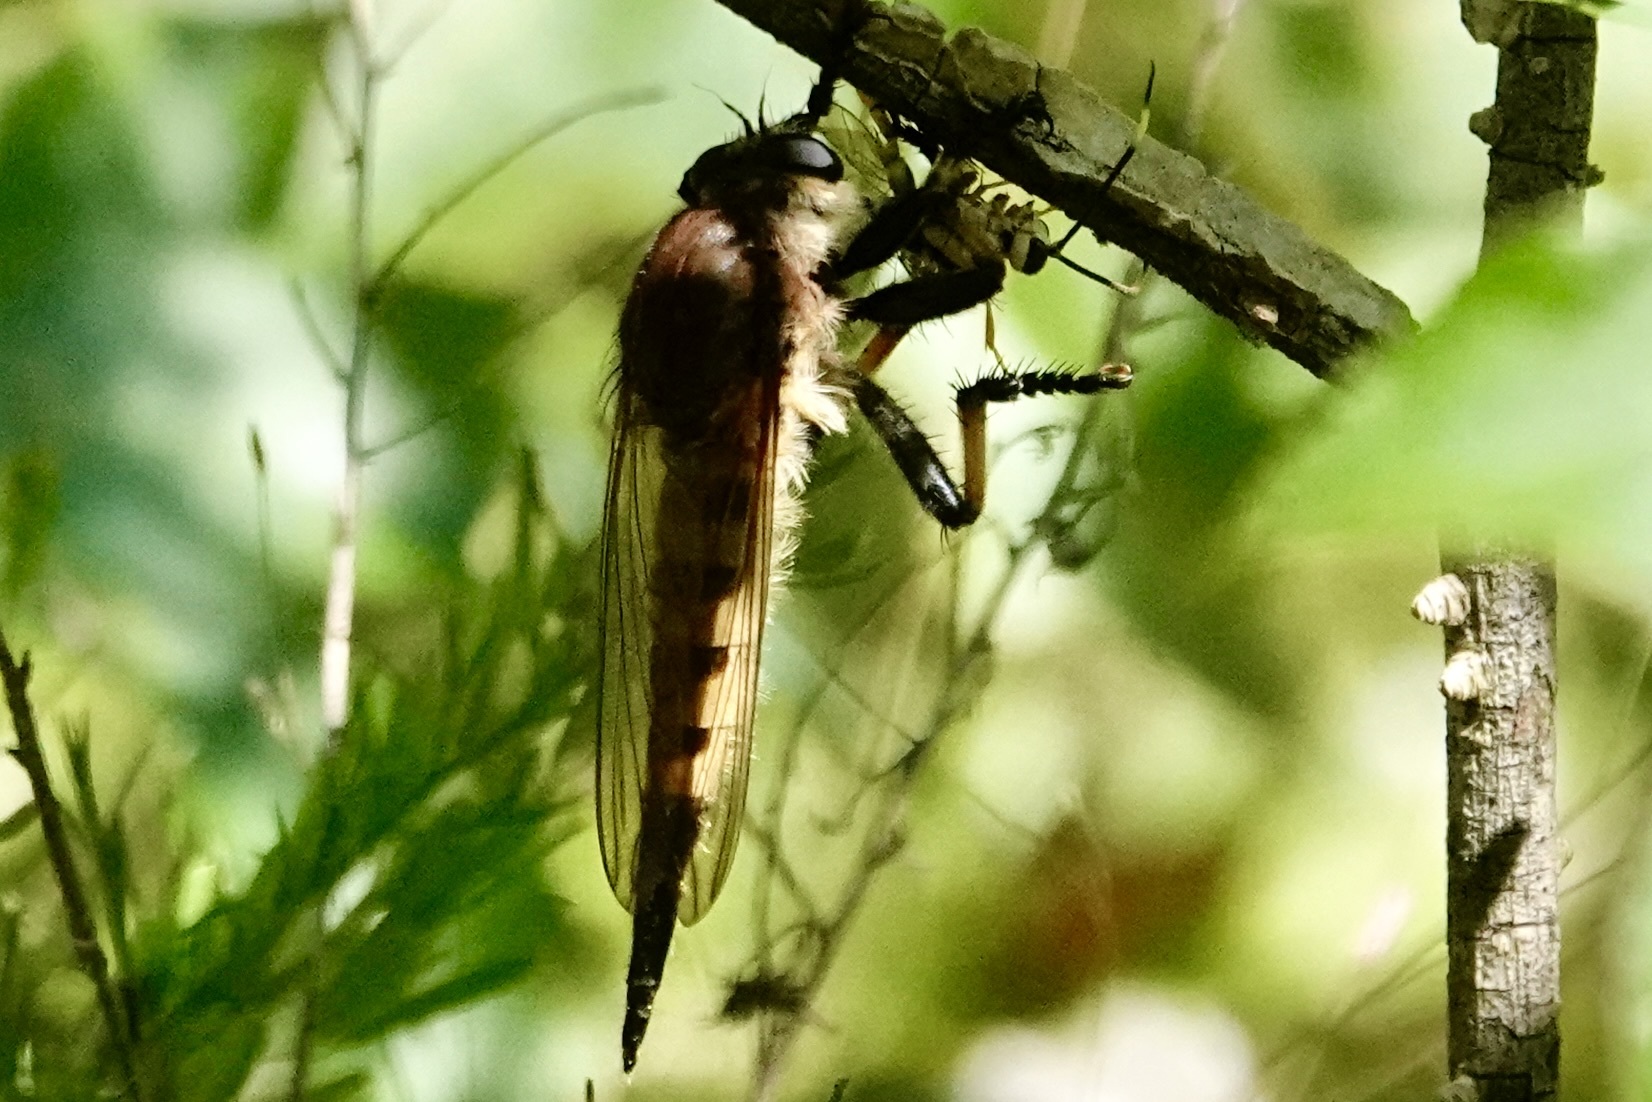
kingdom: Animalia
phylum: Arthropoda
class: Insecta
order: Diptera
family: Asilidae
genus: Promachus
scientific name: Promachus rufipes
